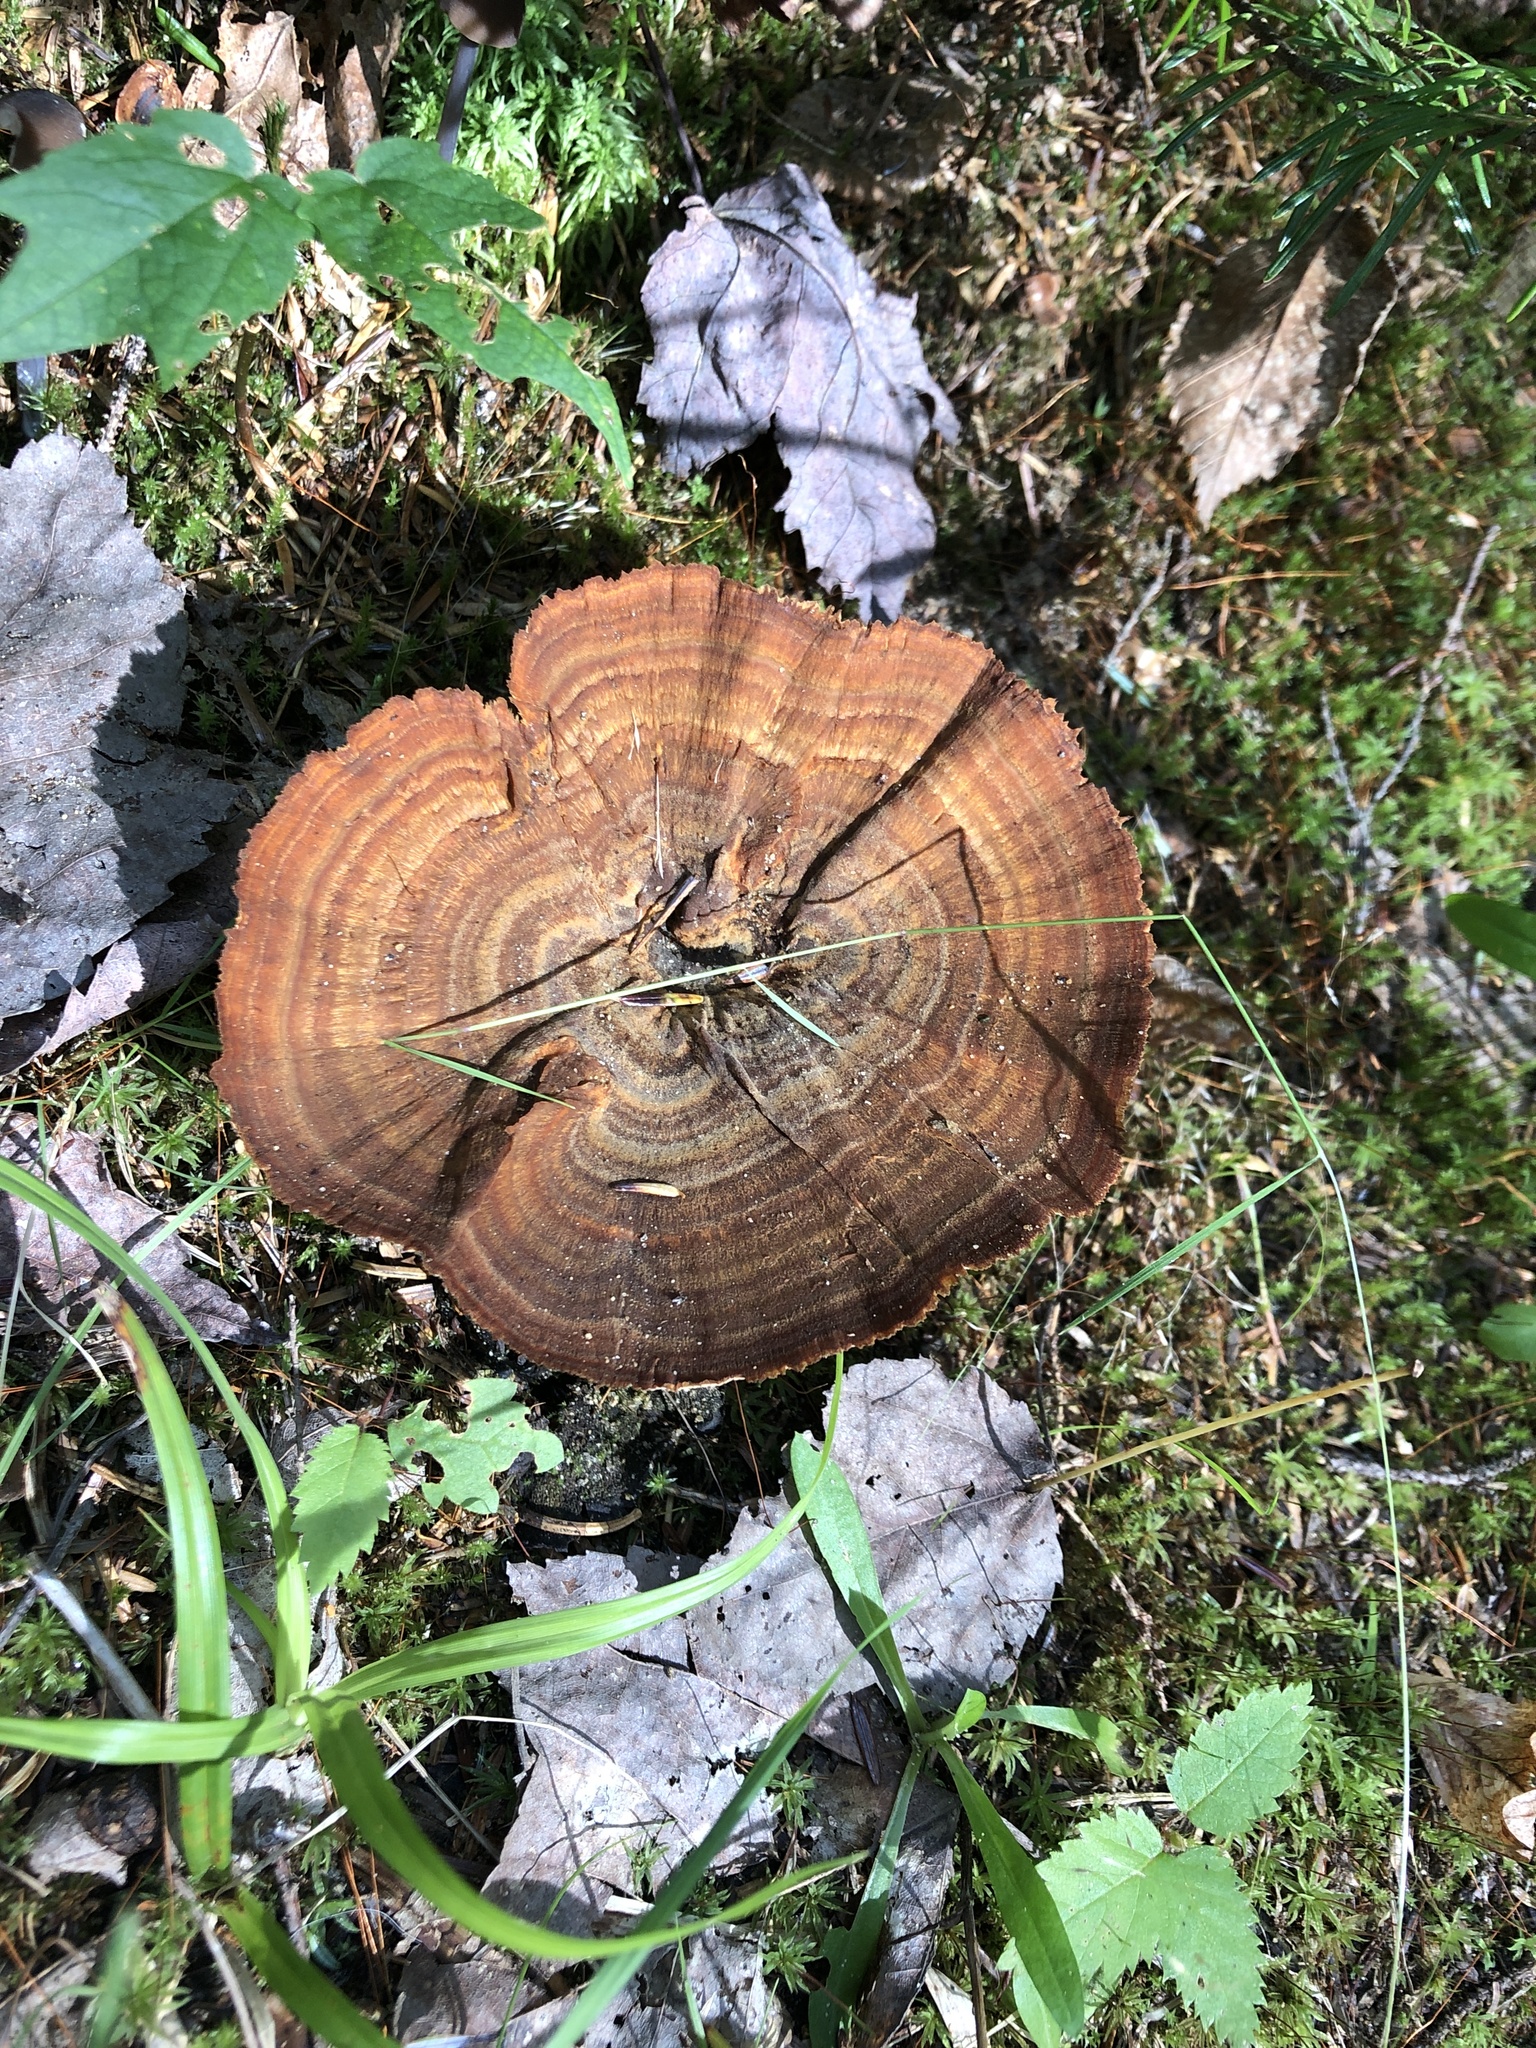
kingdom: Fungi
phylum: Basidiomycota
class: Agaricomycetes
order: Hymenochaetales
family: Hymenochaetaceae
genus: Coltricia
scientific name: Coltricia perennis
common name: Tiger's eye
